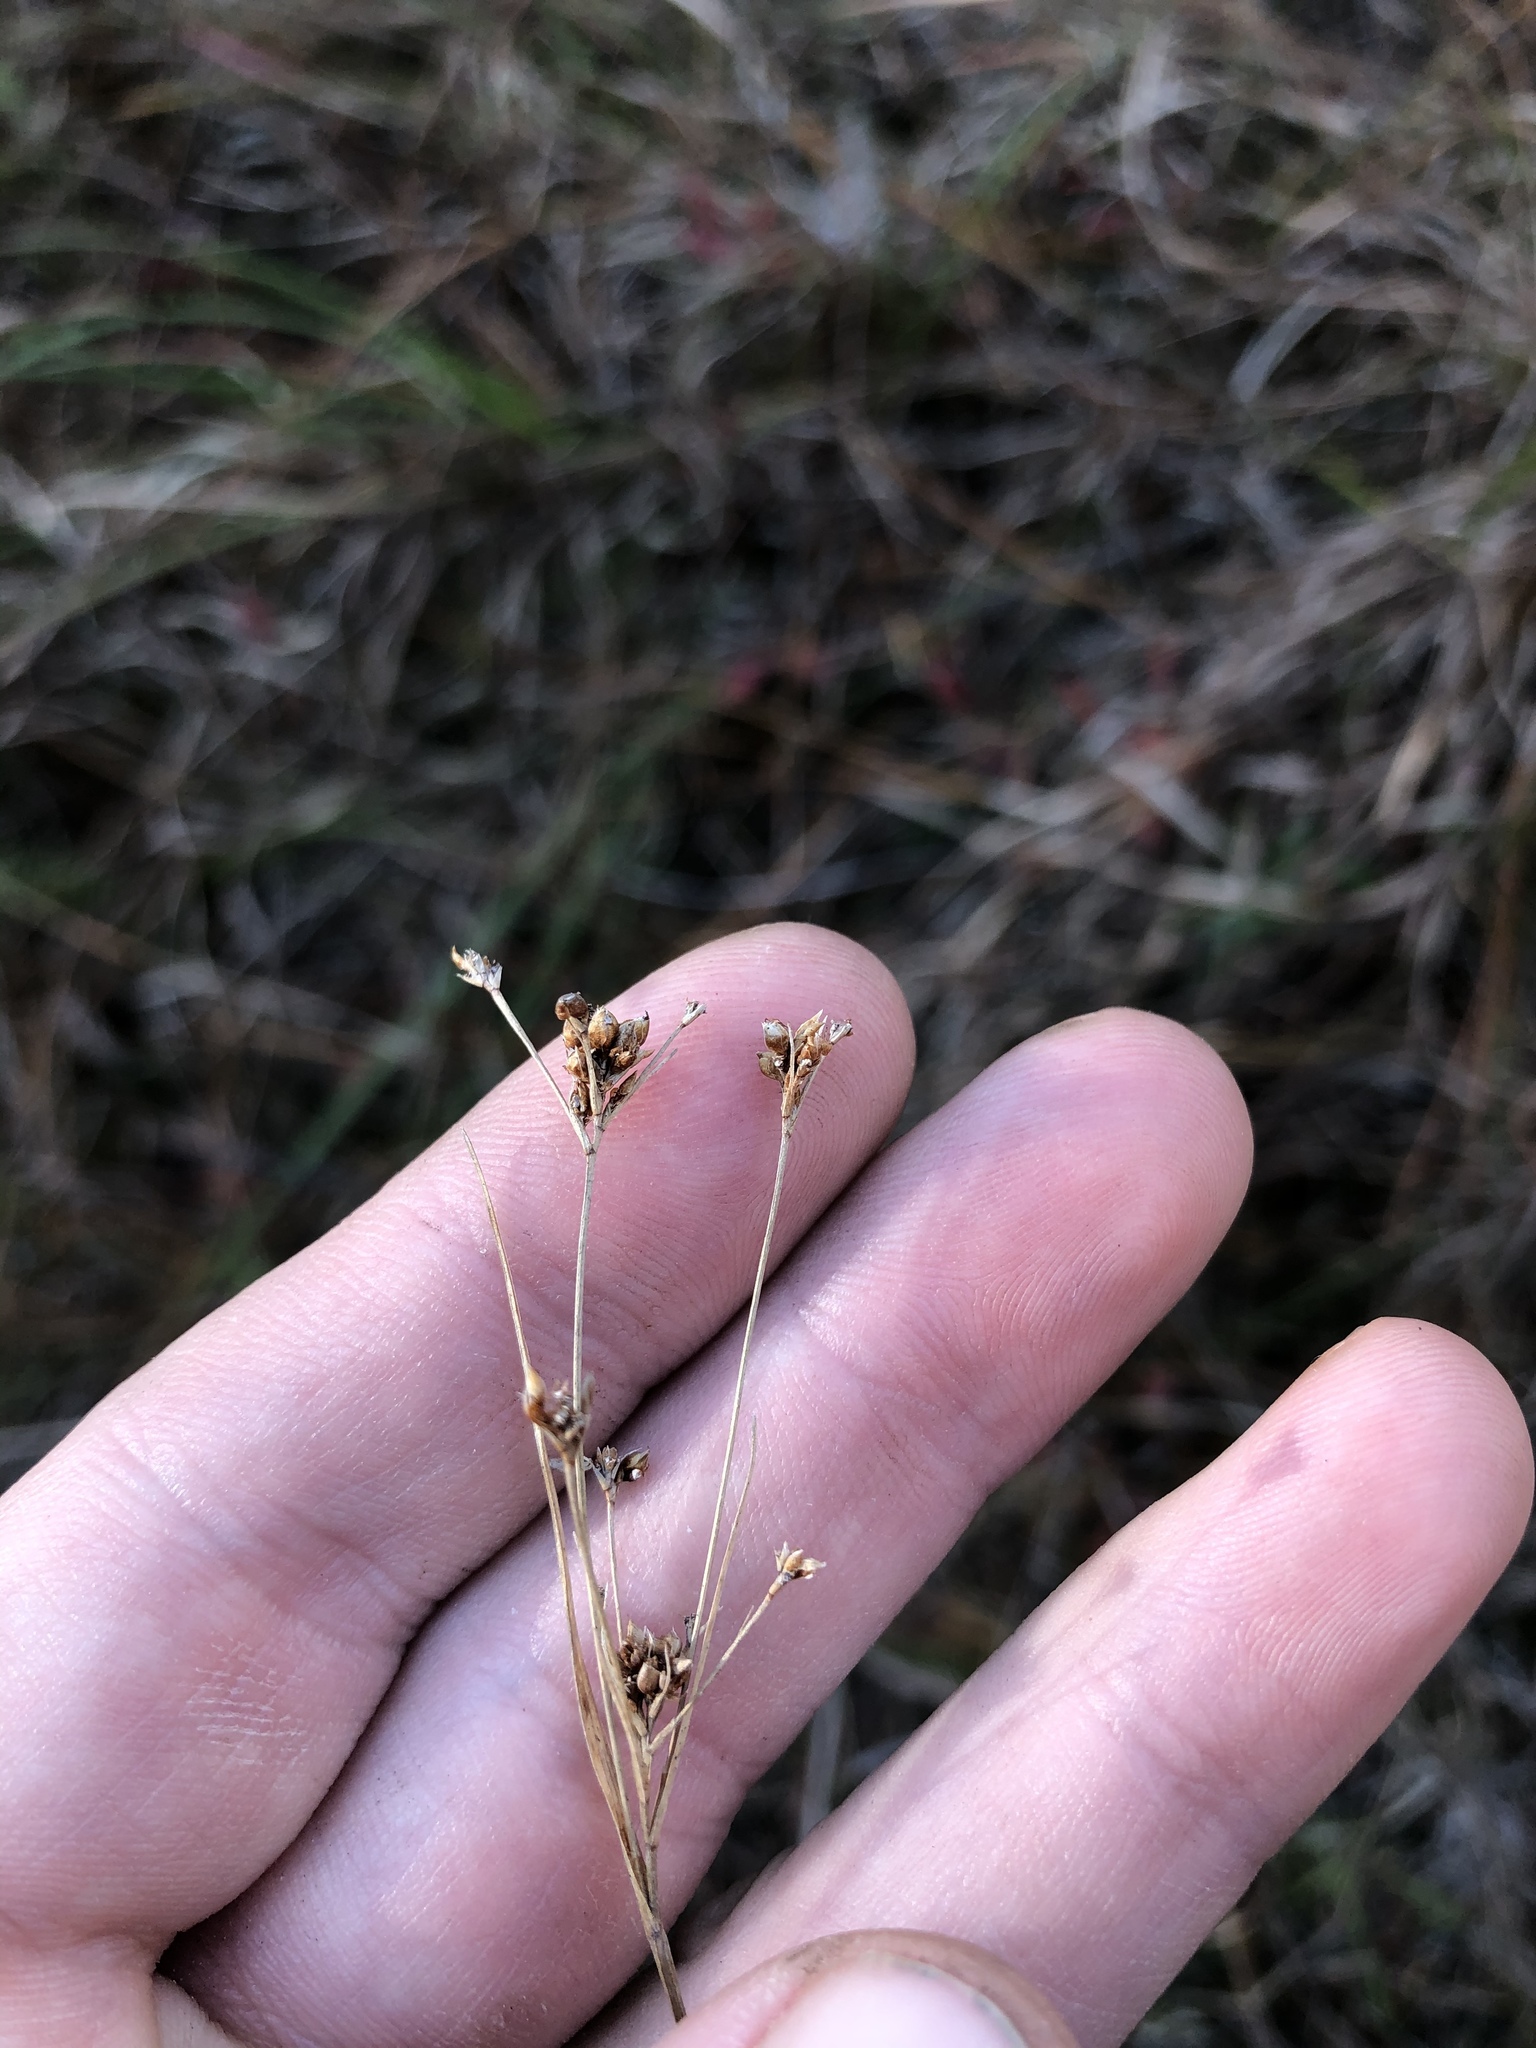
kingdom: Plantae
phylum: Tracheophyta
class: Liliopsida
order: Poales
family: Cyperaceae
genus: Rhynchospora
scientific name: Rhynchospora recognita
